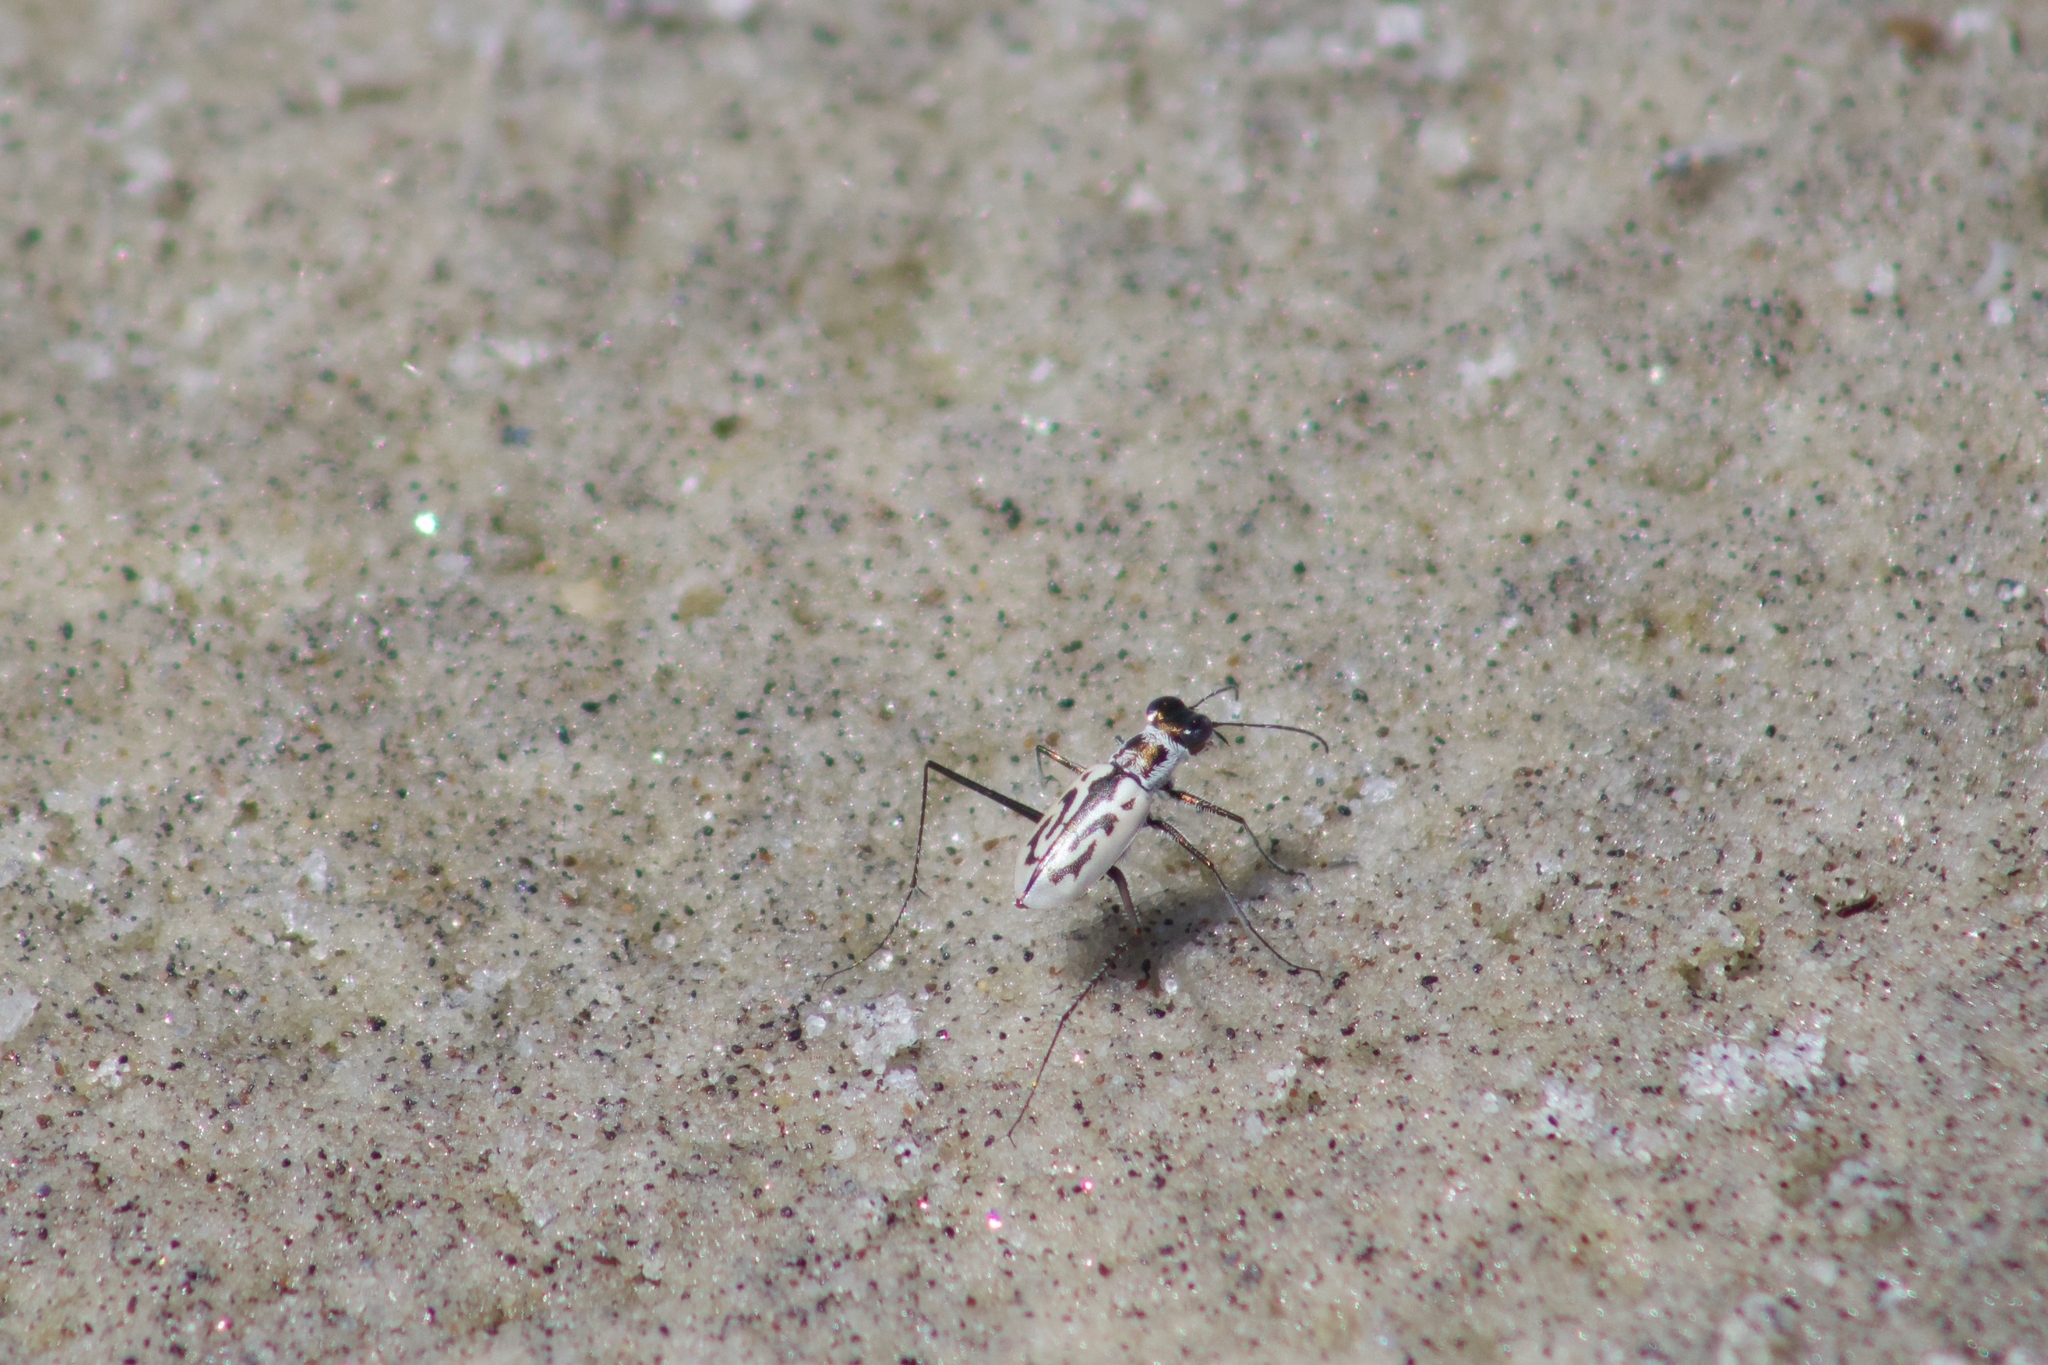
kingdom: Animalia
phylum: Arthropoda
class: Insecta
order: Coleoptera
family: Carabidae
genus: Habroscelimorpha
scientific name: Habroscelimorpha dorsalis
